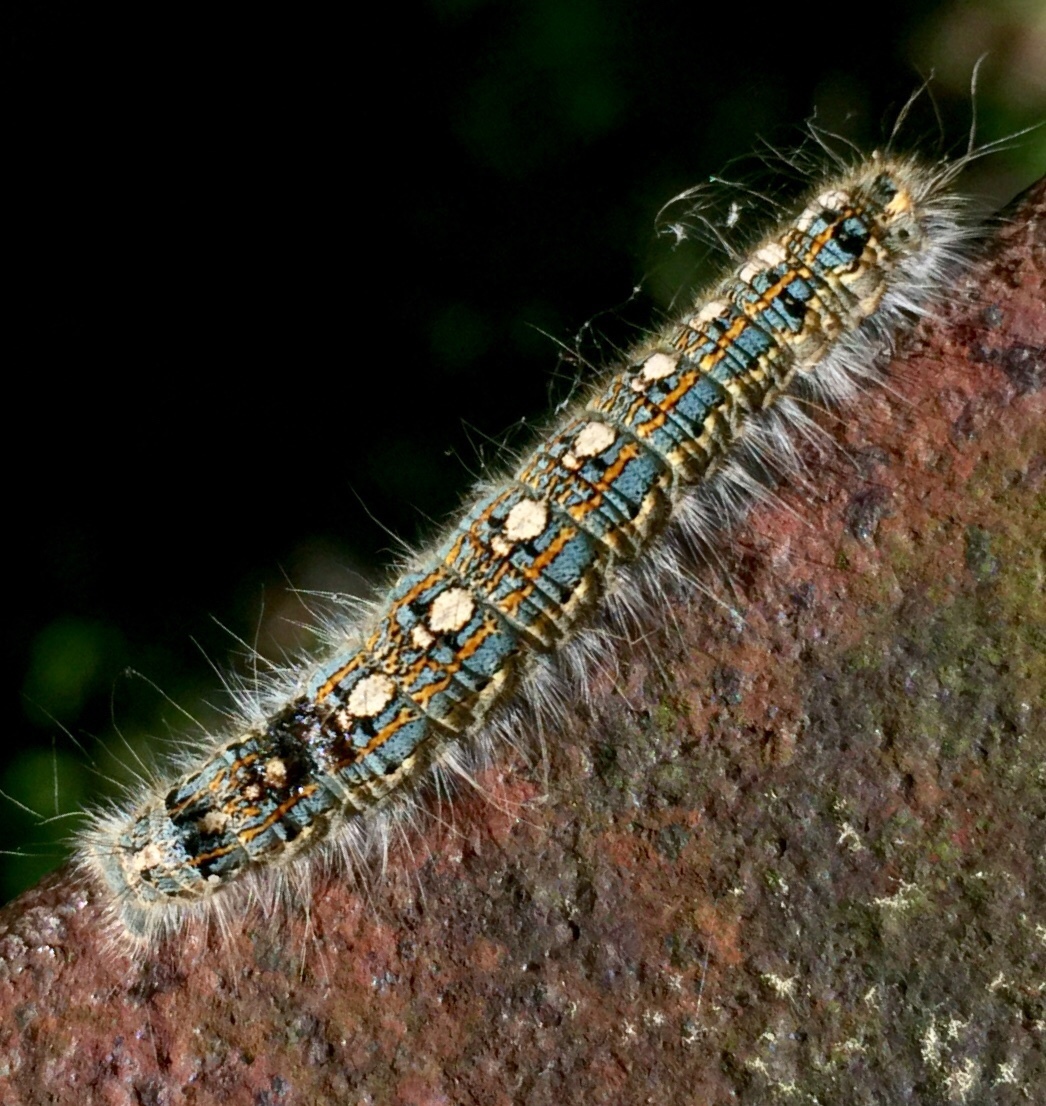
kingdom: Animalia
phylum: Arthropoda
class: Insecta
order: Lepidoptera
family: Lasiocampidae
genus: Malacosoma
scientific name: Malacosoma disstria
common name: Forest tent caterpillar
